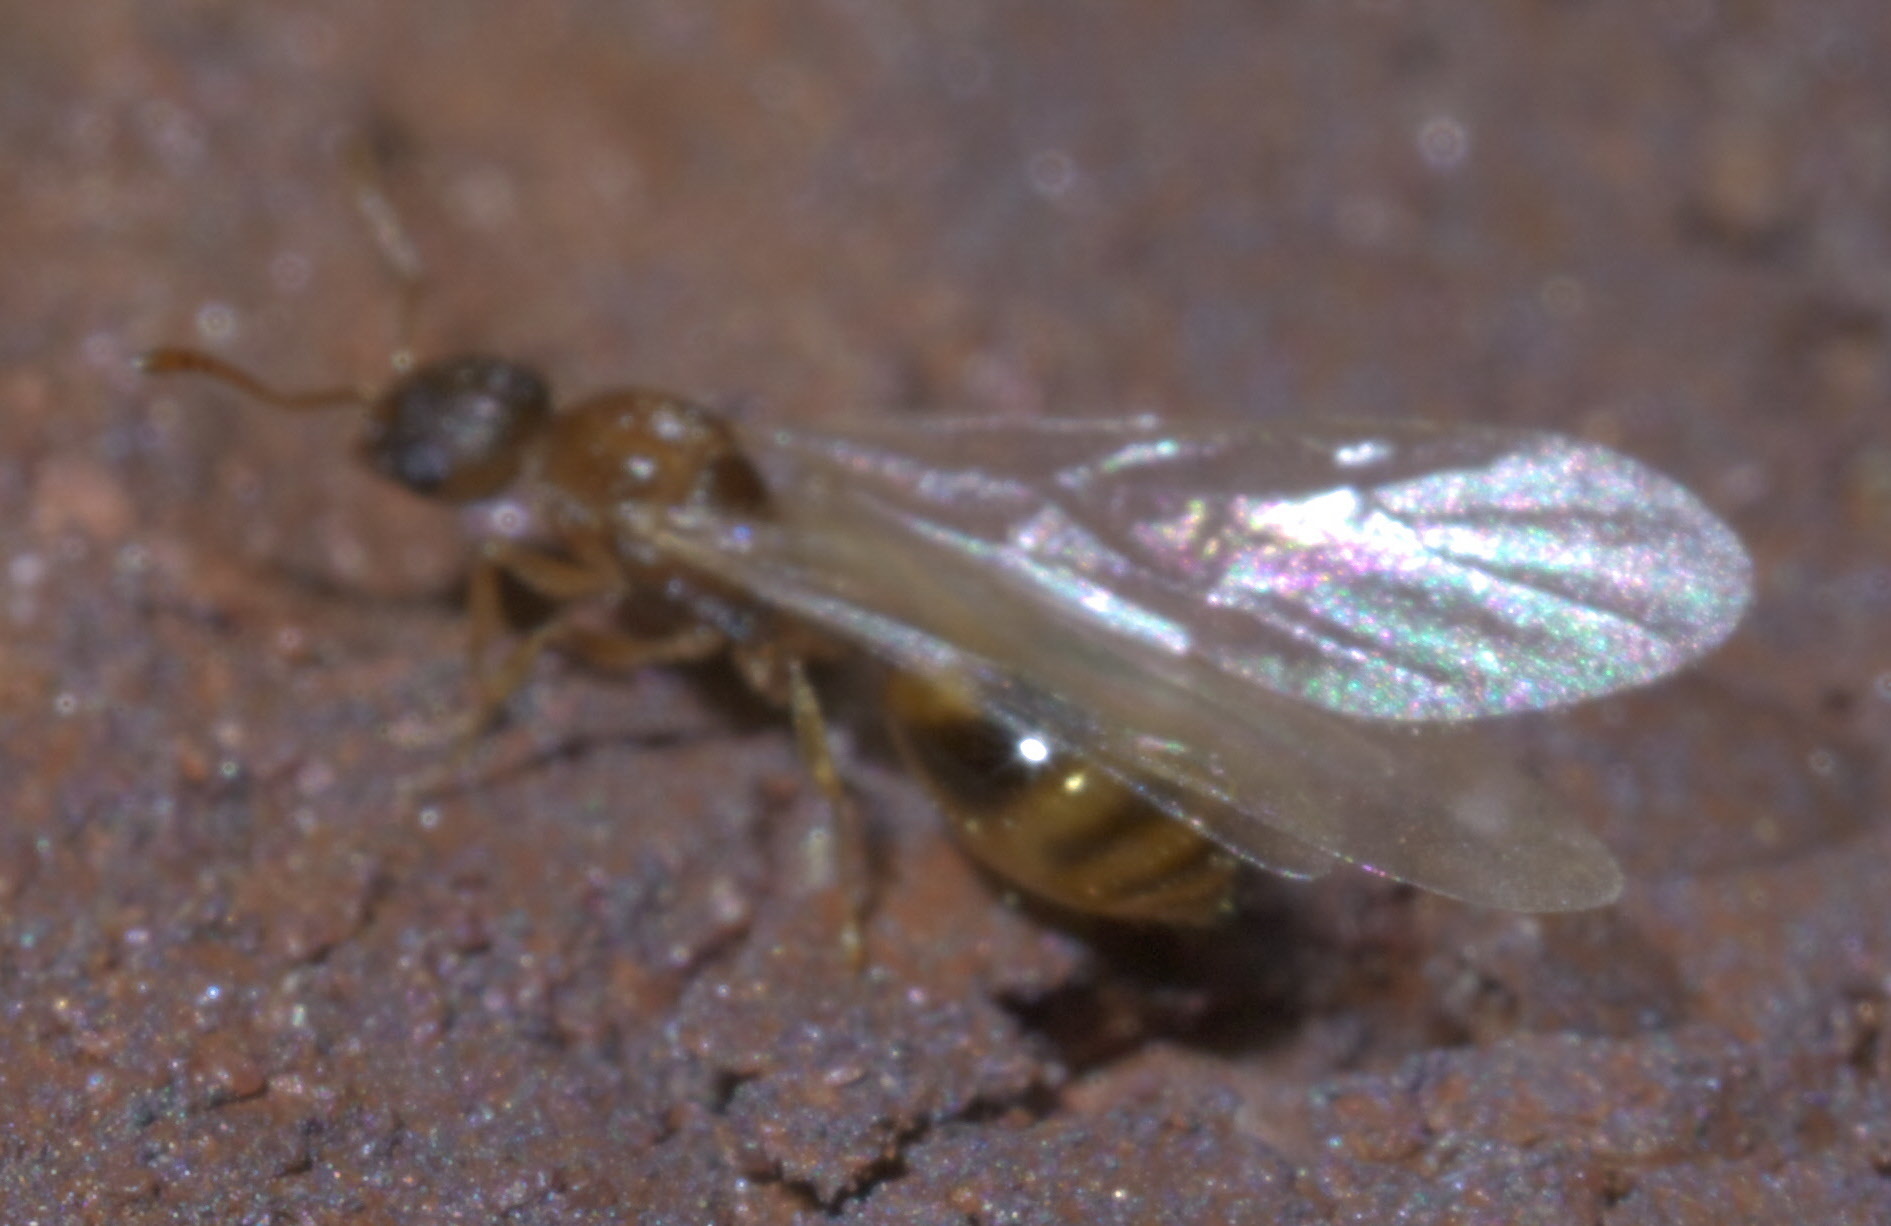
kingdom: Animalia
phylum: Arthropoda
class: Insecta
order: Hymenoptera
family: Formicidae
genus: Temnothorax
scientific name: Temnothorax curvispinosus
